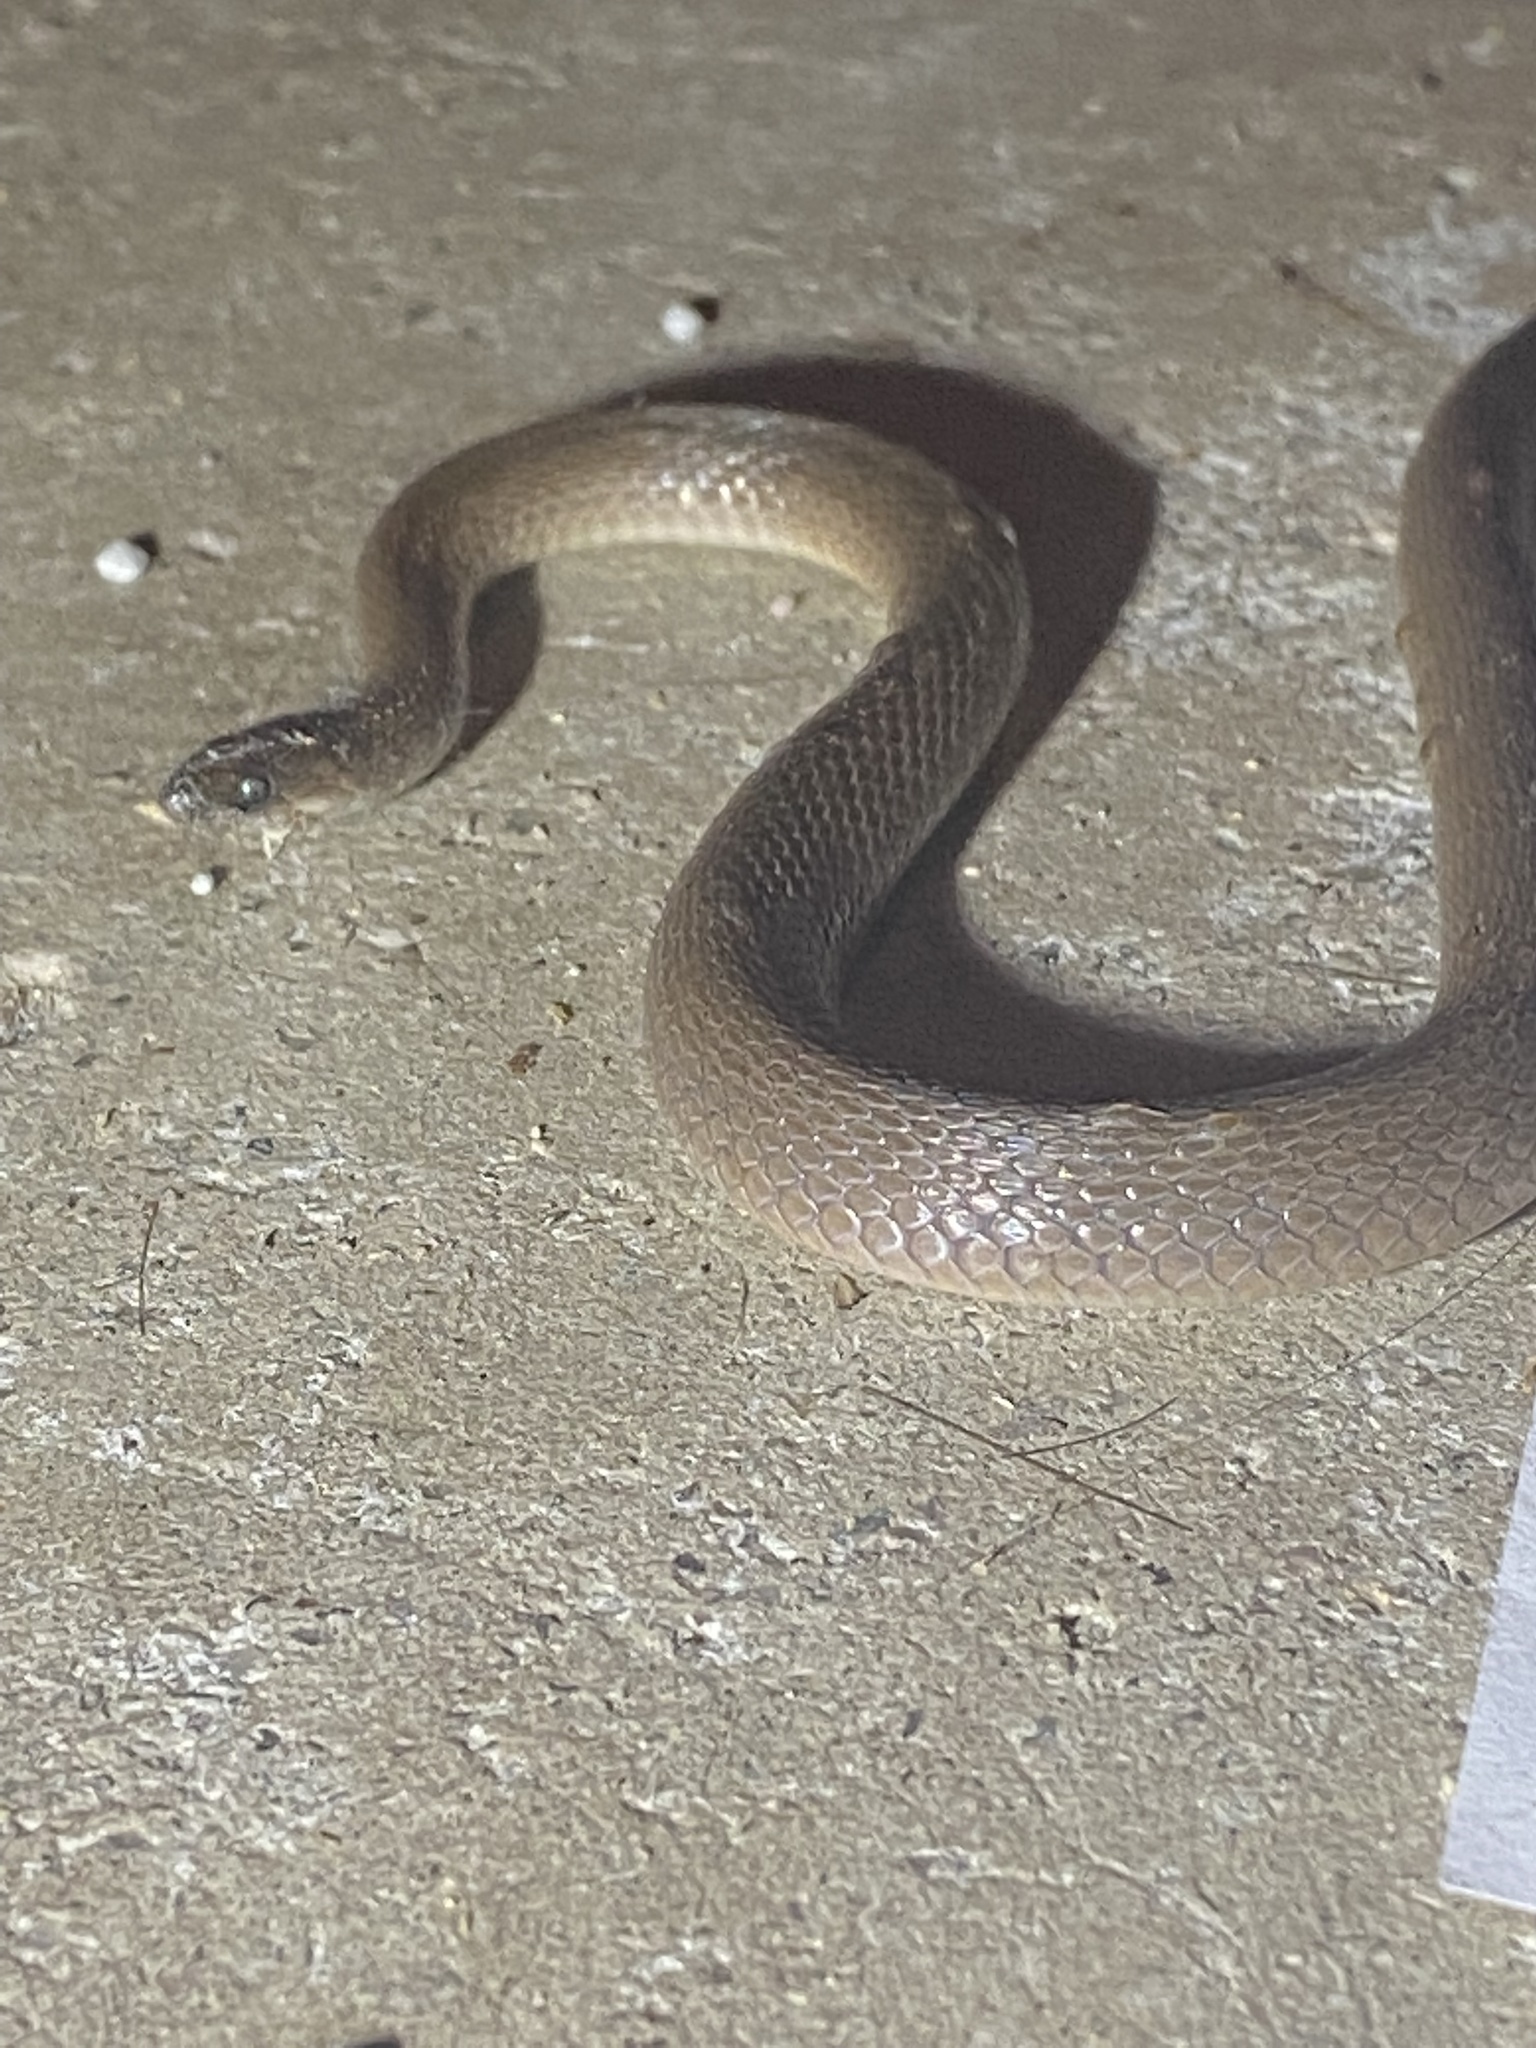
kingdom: Animalia
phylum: Chordata
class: Squamata
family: Colubridae
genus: Haldea
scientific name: Haldea striatula
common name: Rough earth snake
